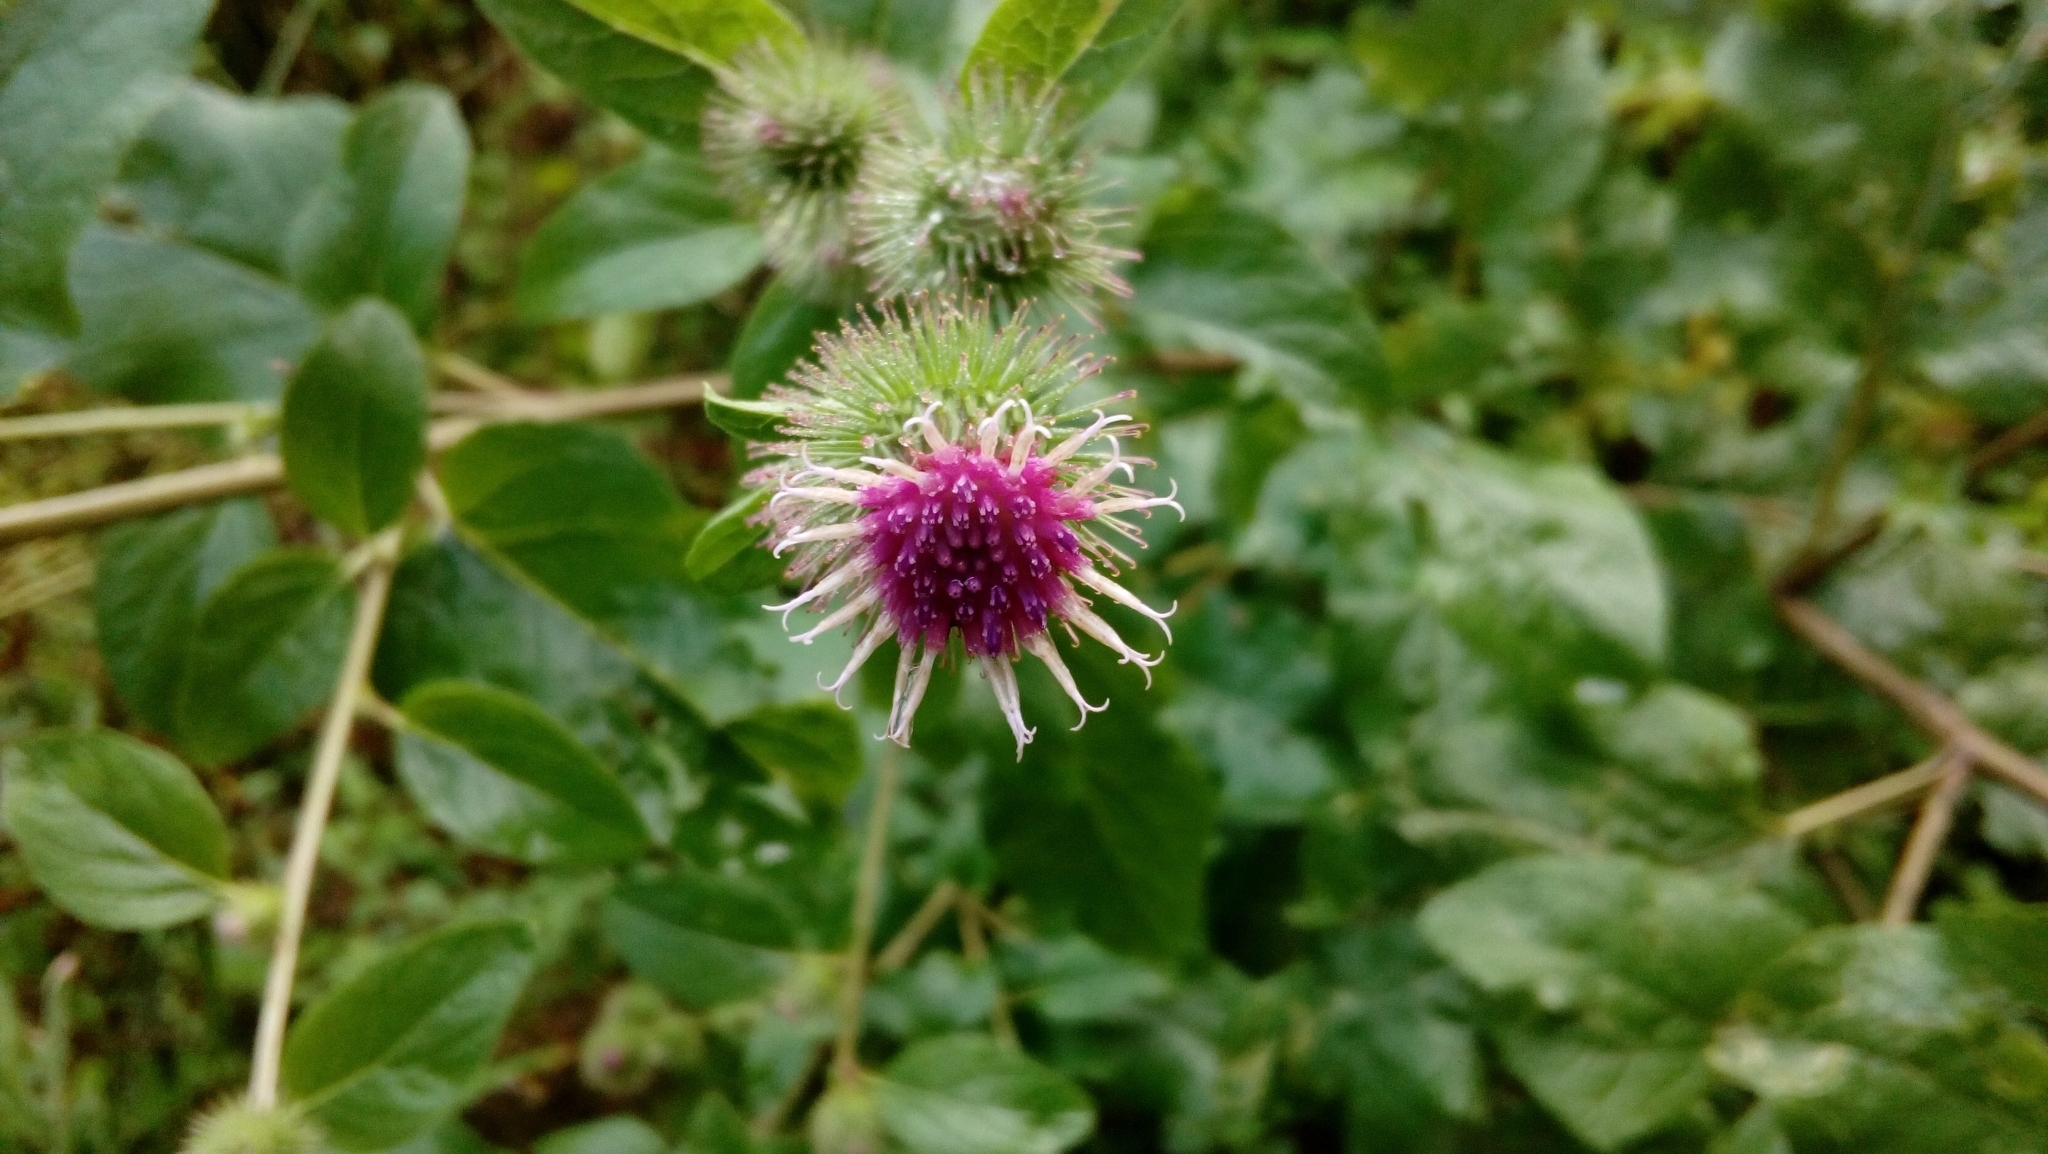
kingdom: Plantae
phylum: Tracheophyta
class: Magnoliopsida
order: Asterales
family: Asteraceae
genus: Arctium
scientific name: Arctium minus
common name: Lesser burdock
